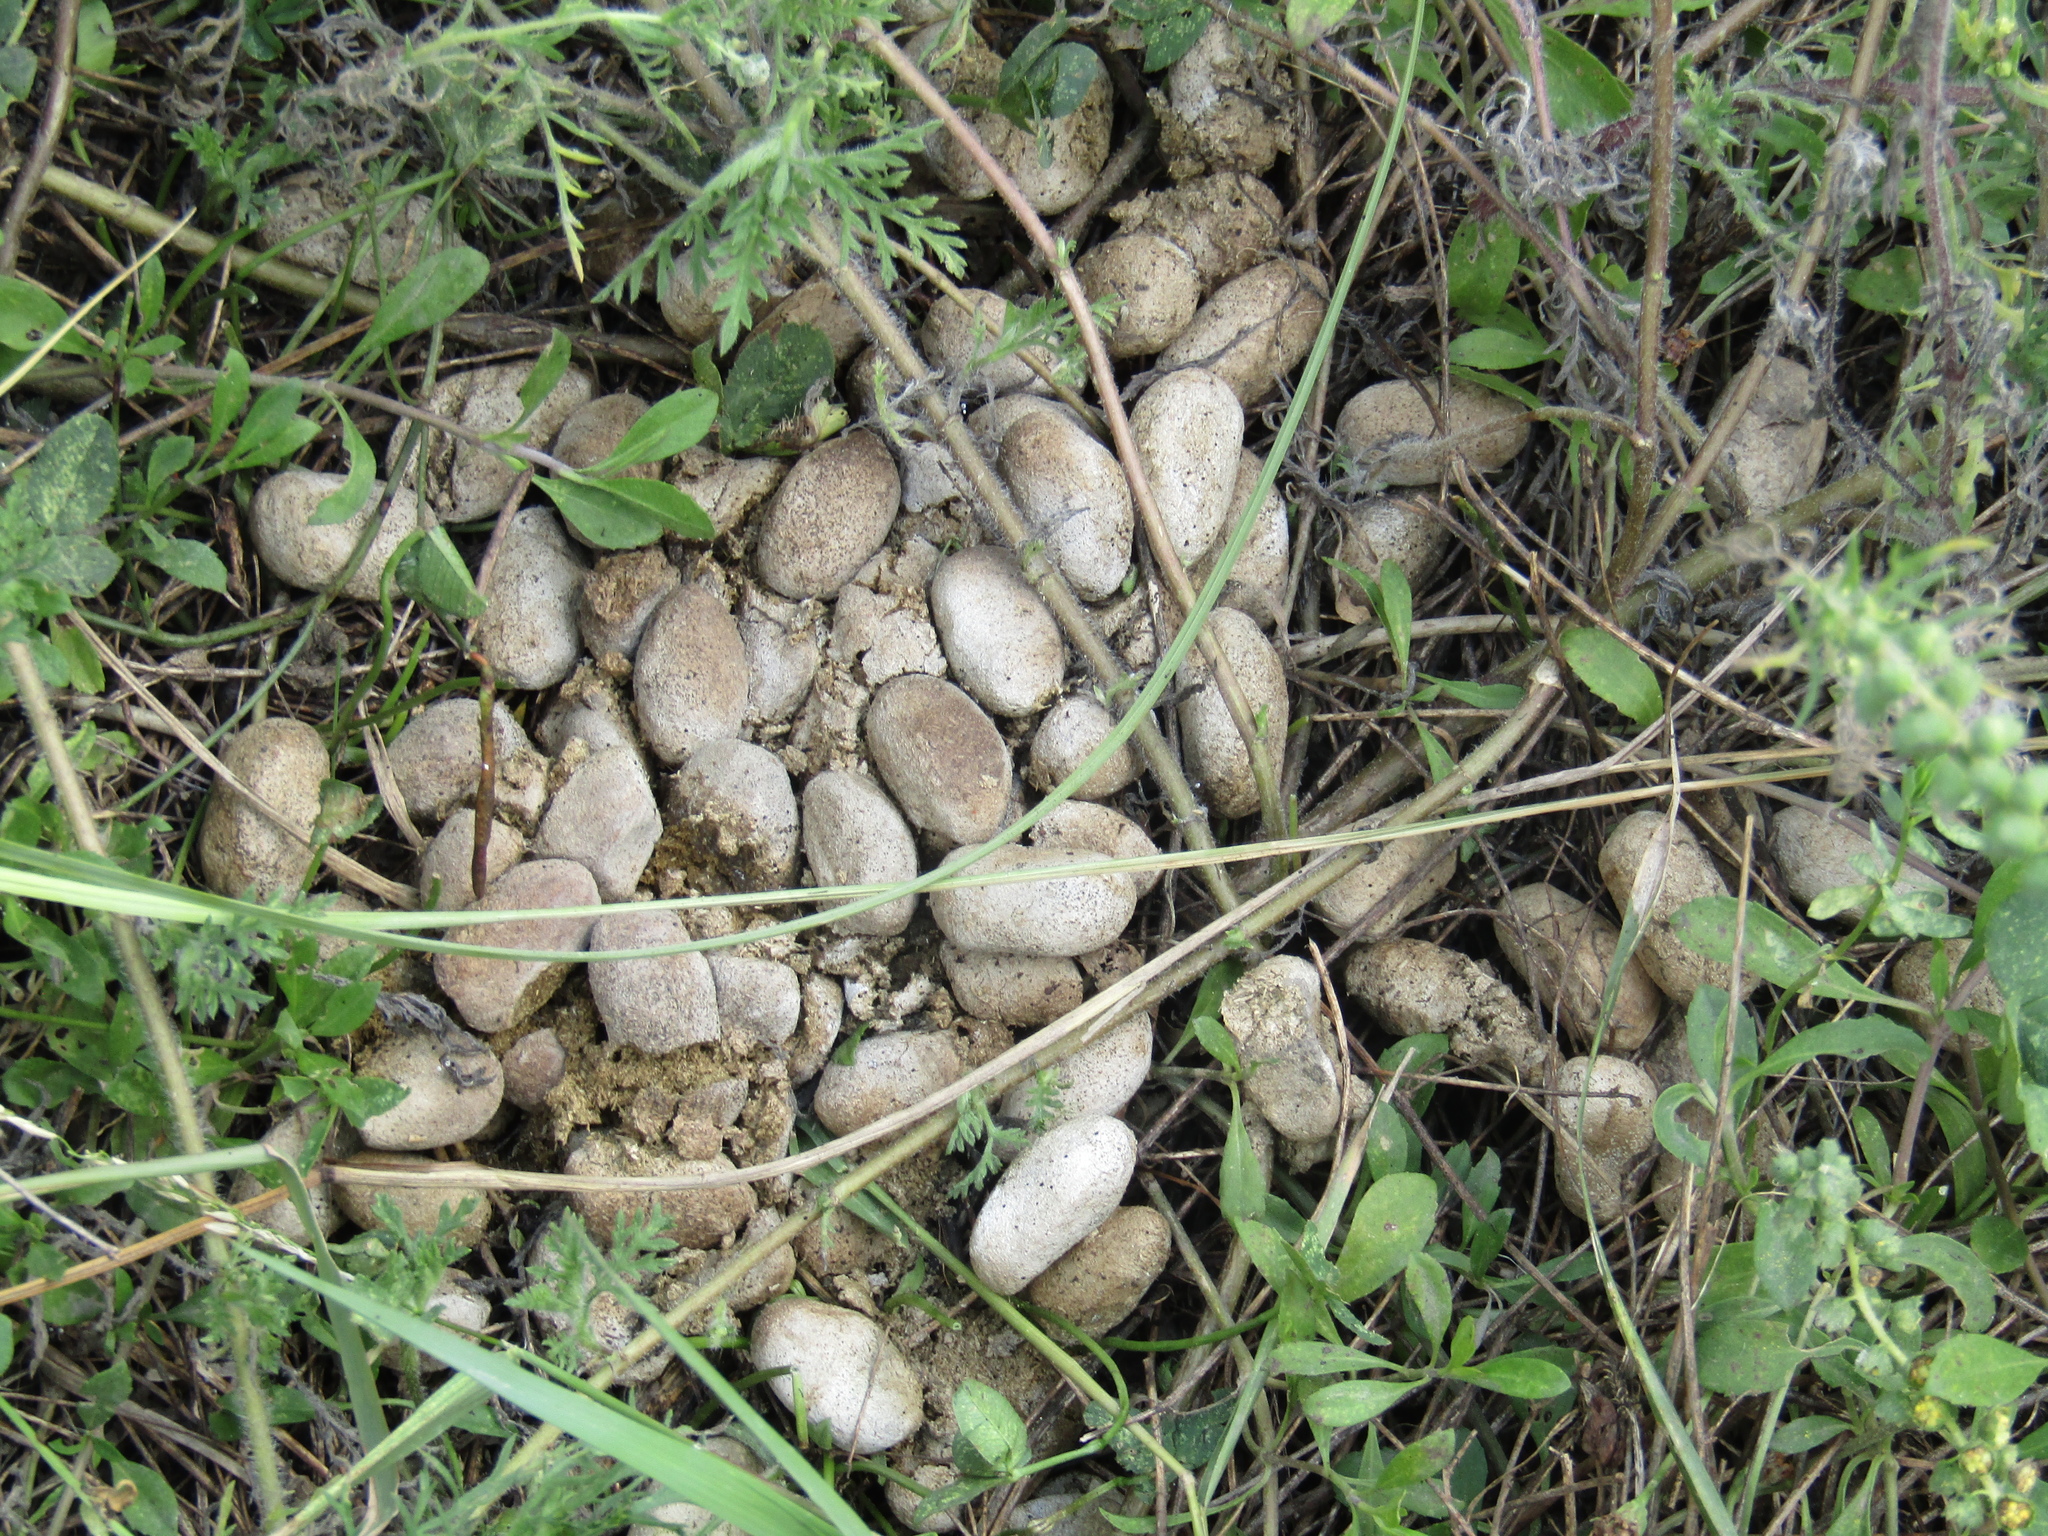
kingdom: Animalia
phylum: Chordata
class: Mammalia
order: Rodentia
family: Caviidae
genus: Hydrochoerus
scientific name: Hydrochoerus hydrochaeris
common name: Capybara
